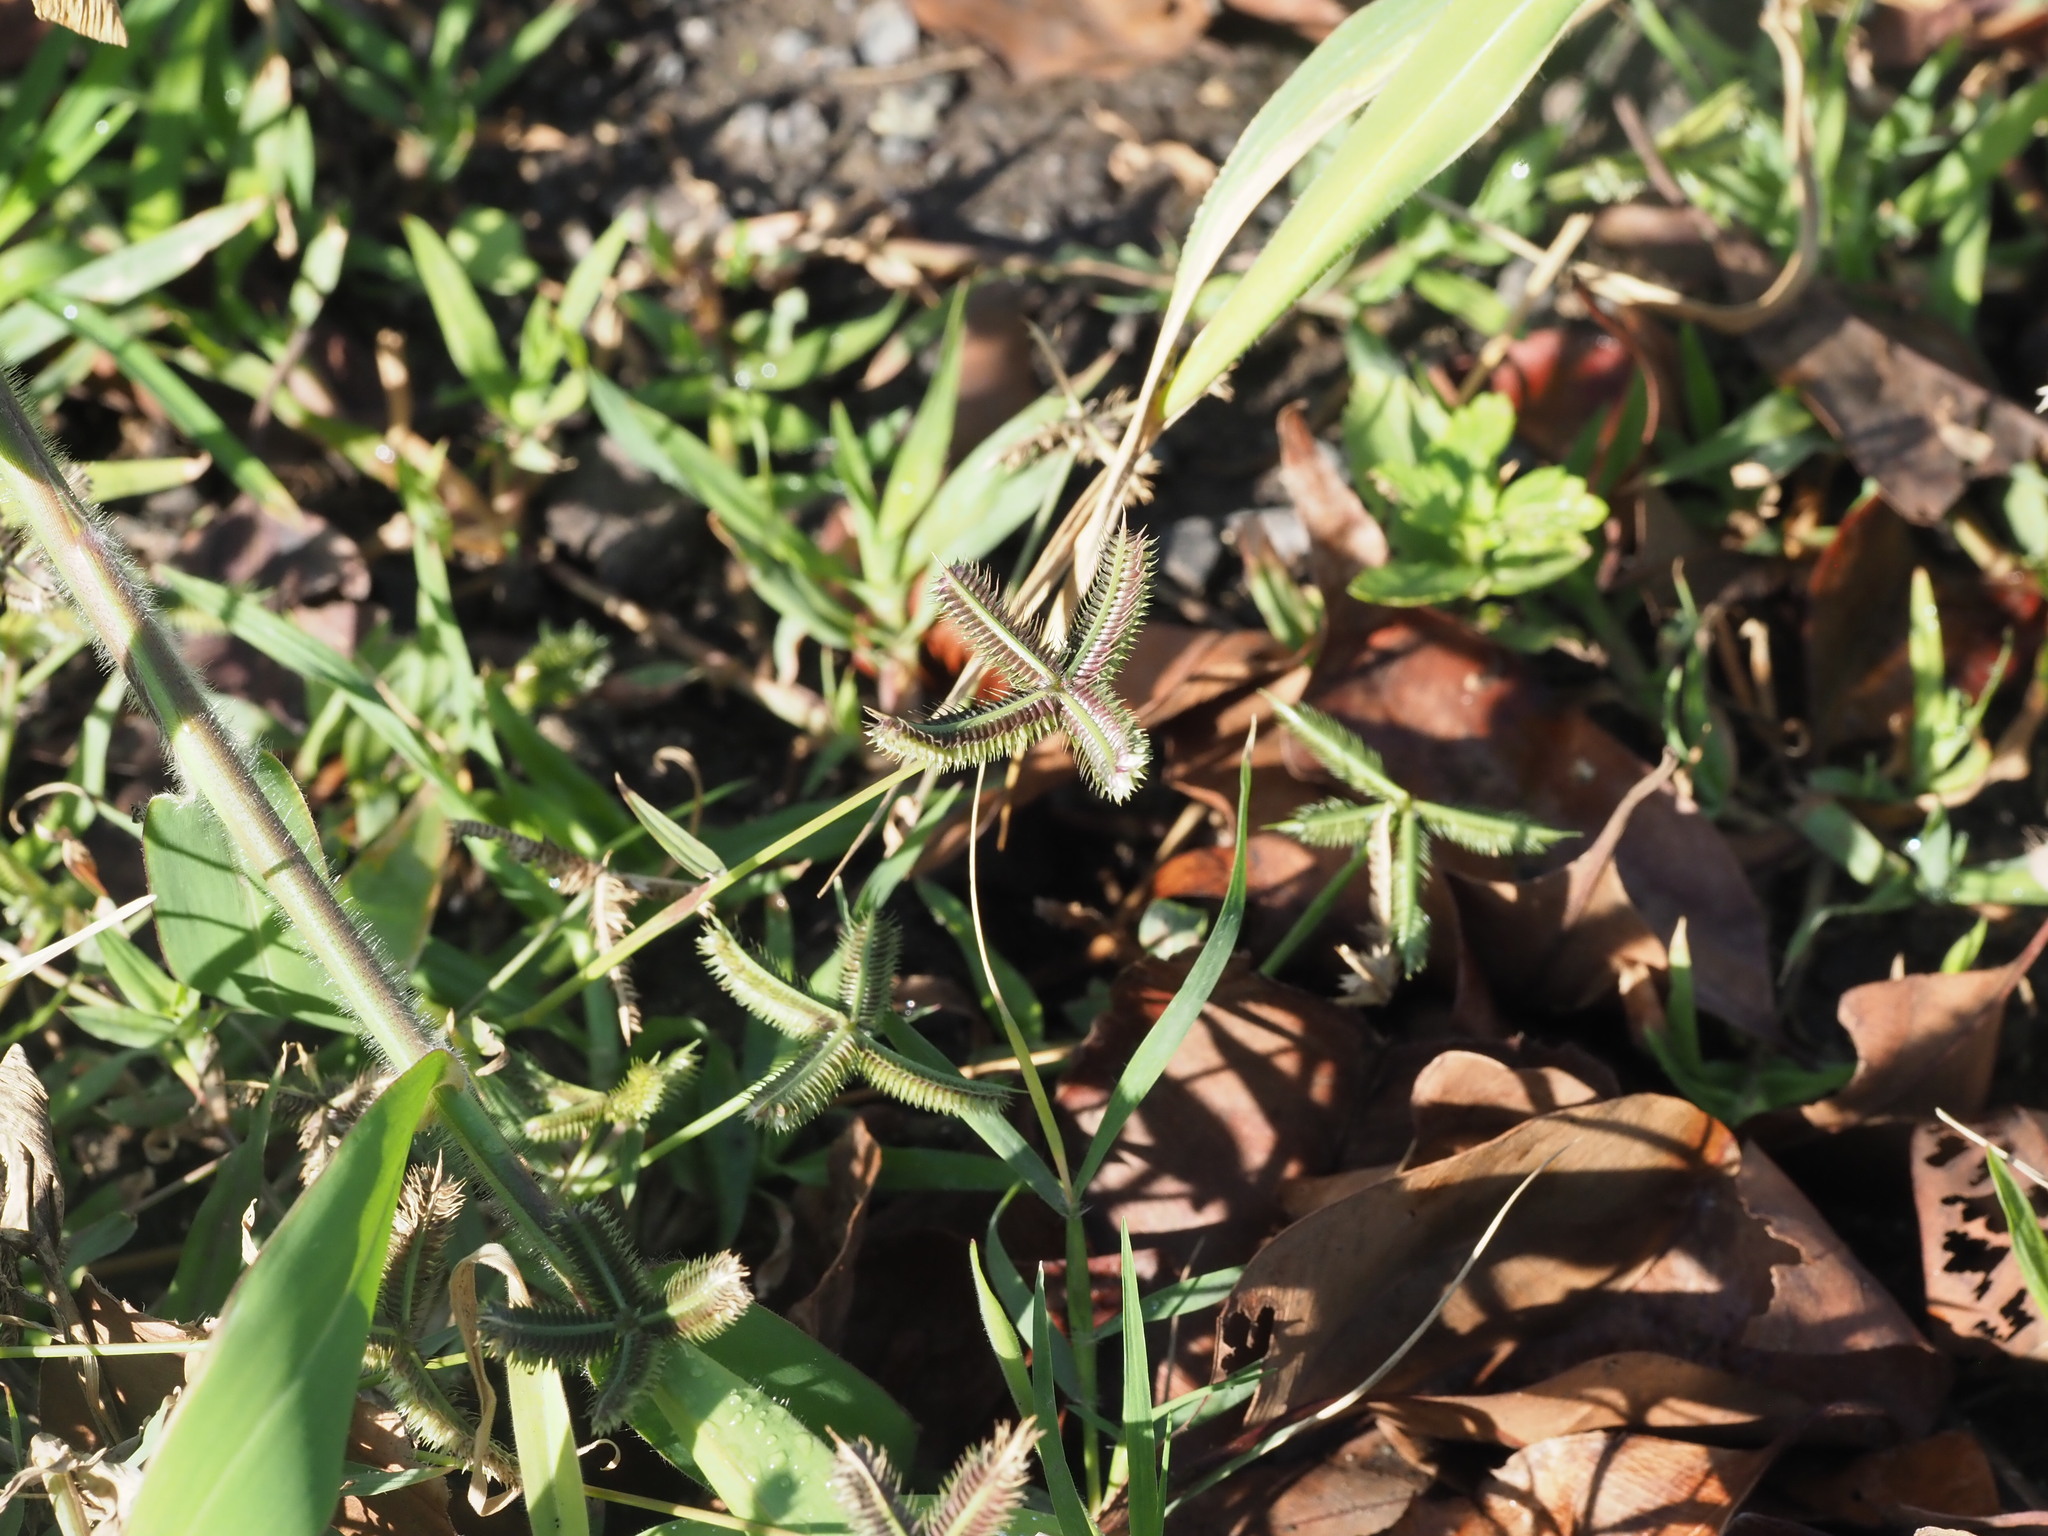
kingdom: Plantae
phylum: Tracheophyta
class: Liliopsida
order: Poales
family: Poaceae
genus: Dactyloctenium
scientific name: Dactyloctenium aegyptium
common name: Egyptian grass
